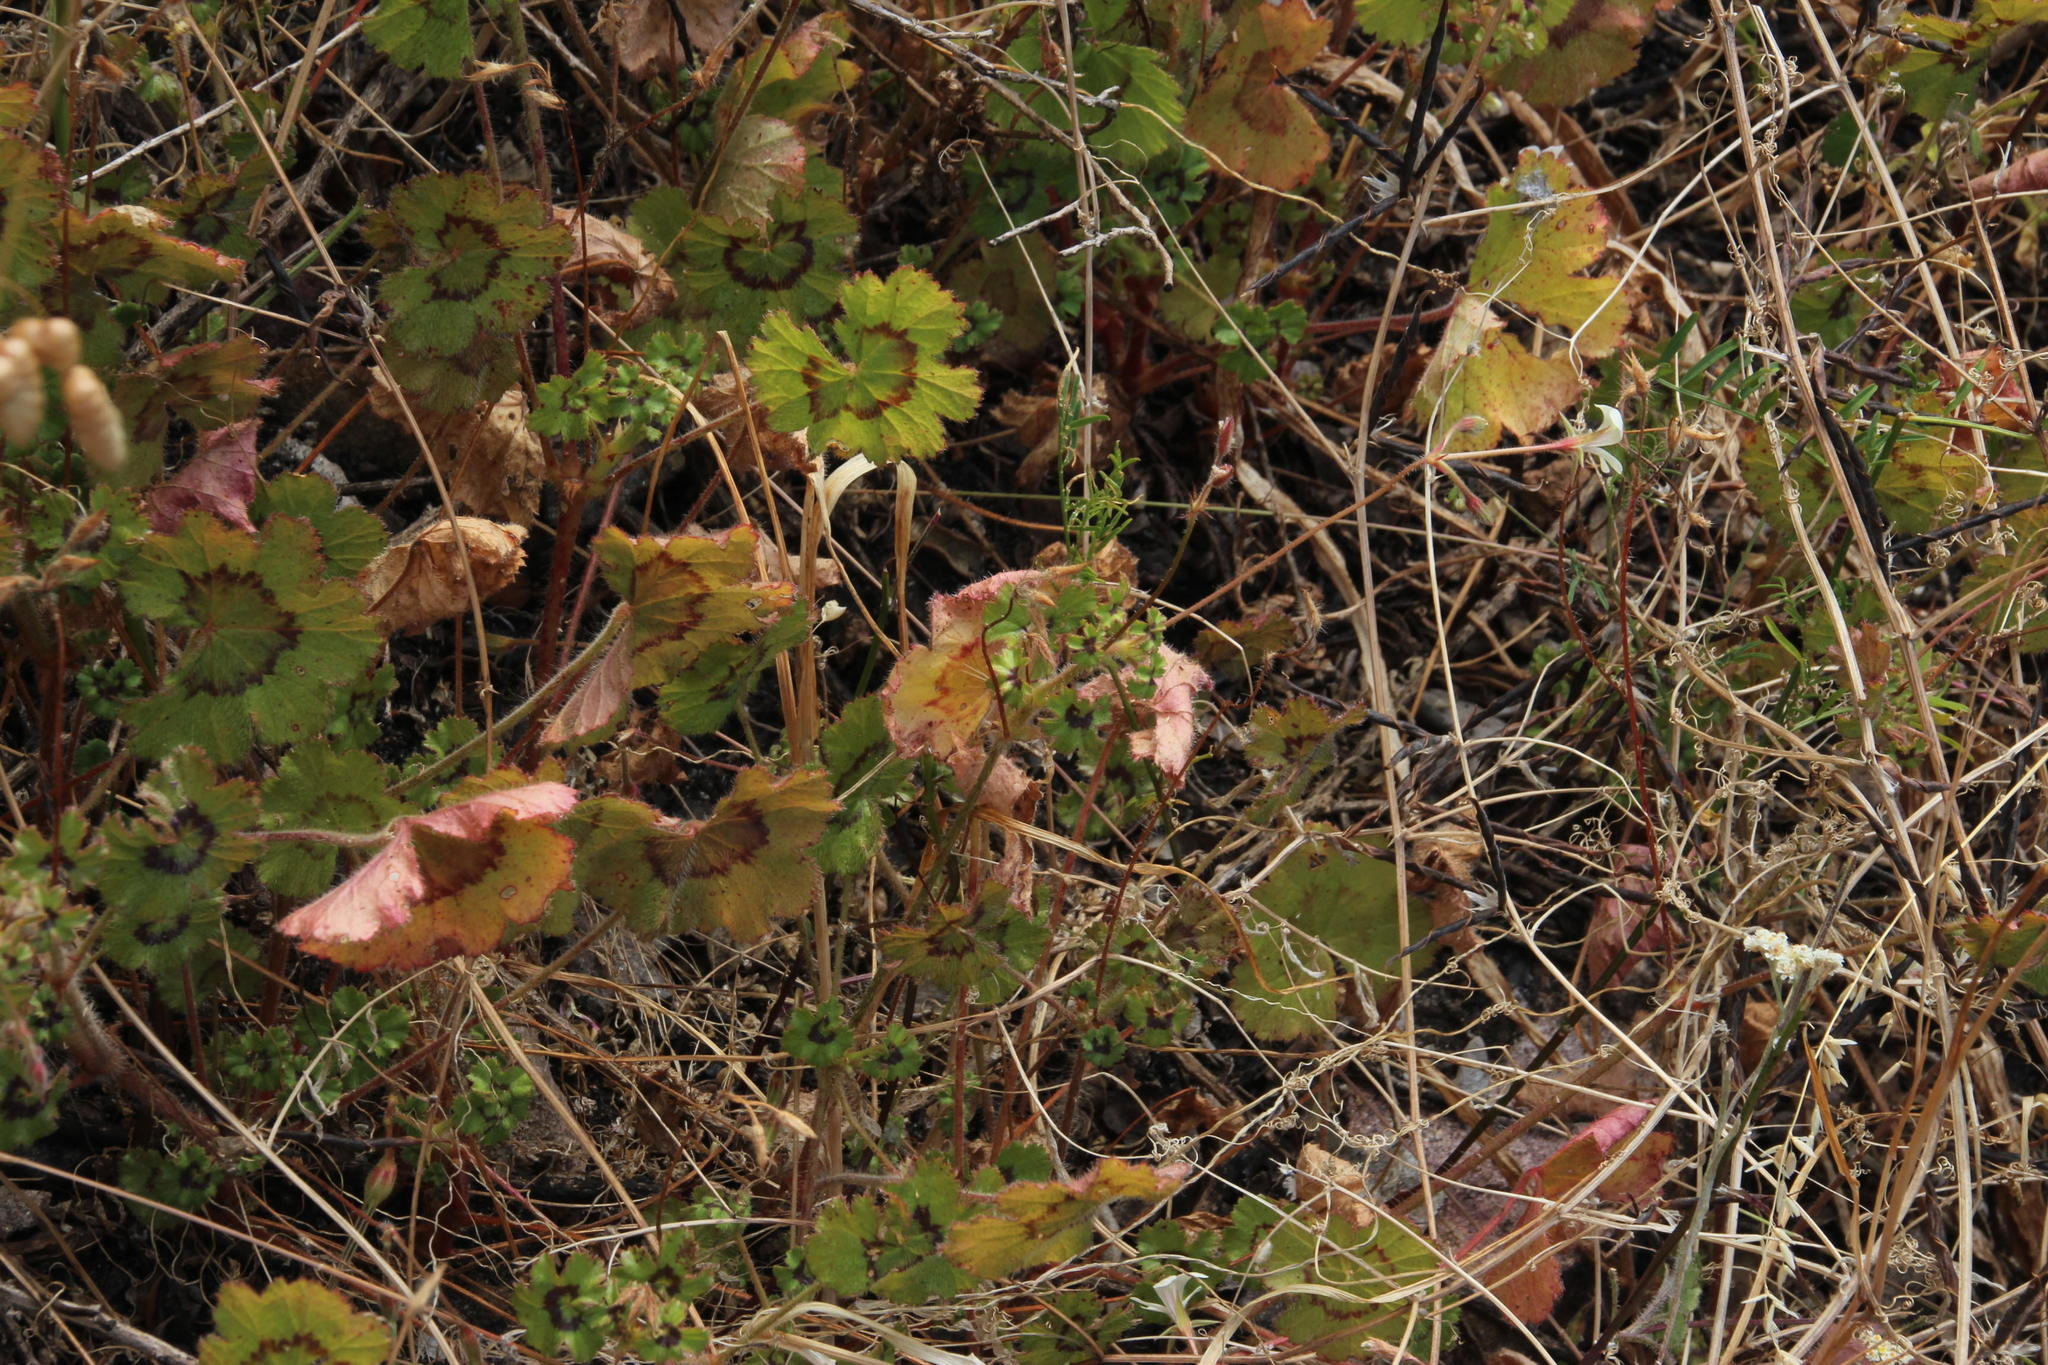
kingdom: Plantae
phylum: Tracheophyta
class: Magnoliopsida
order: Geraniales
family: Geraniaceae
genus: Pelargonium
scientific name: Pelargonium elongatum
